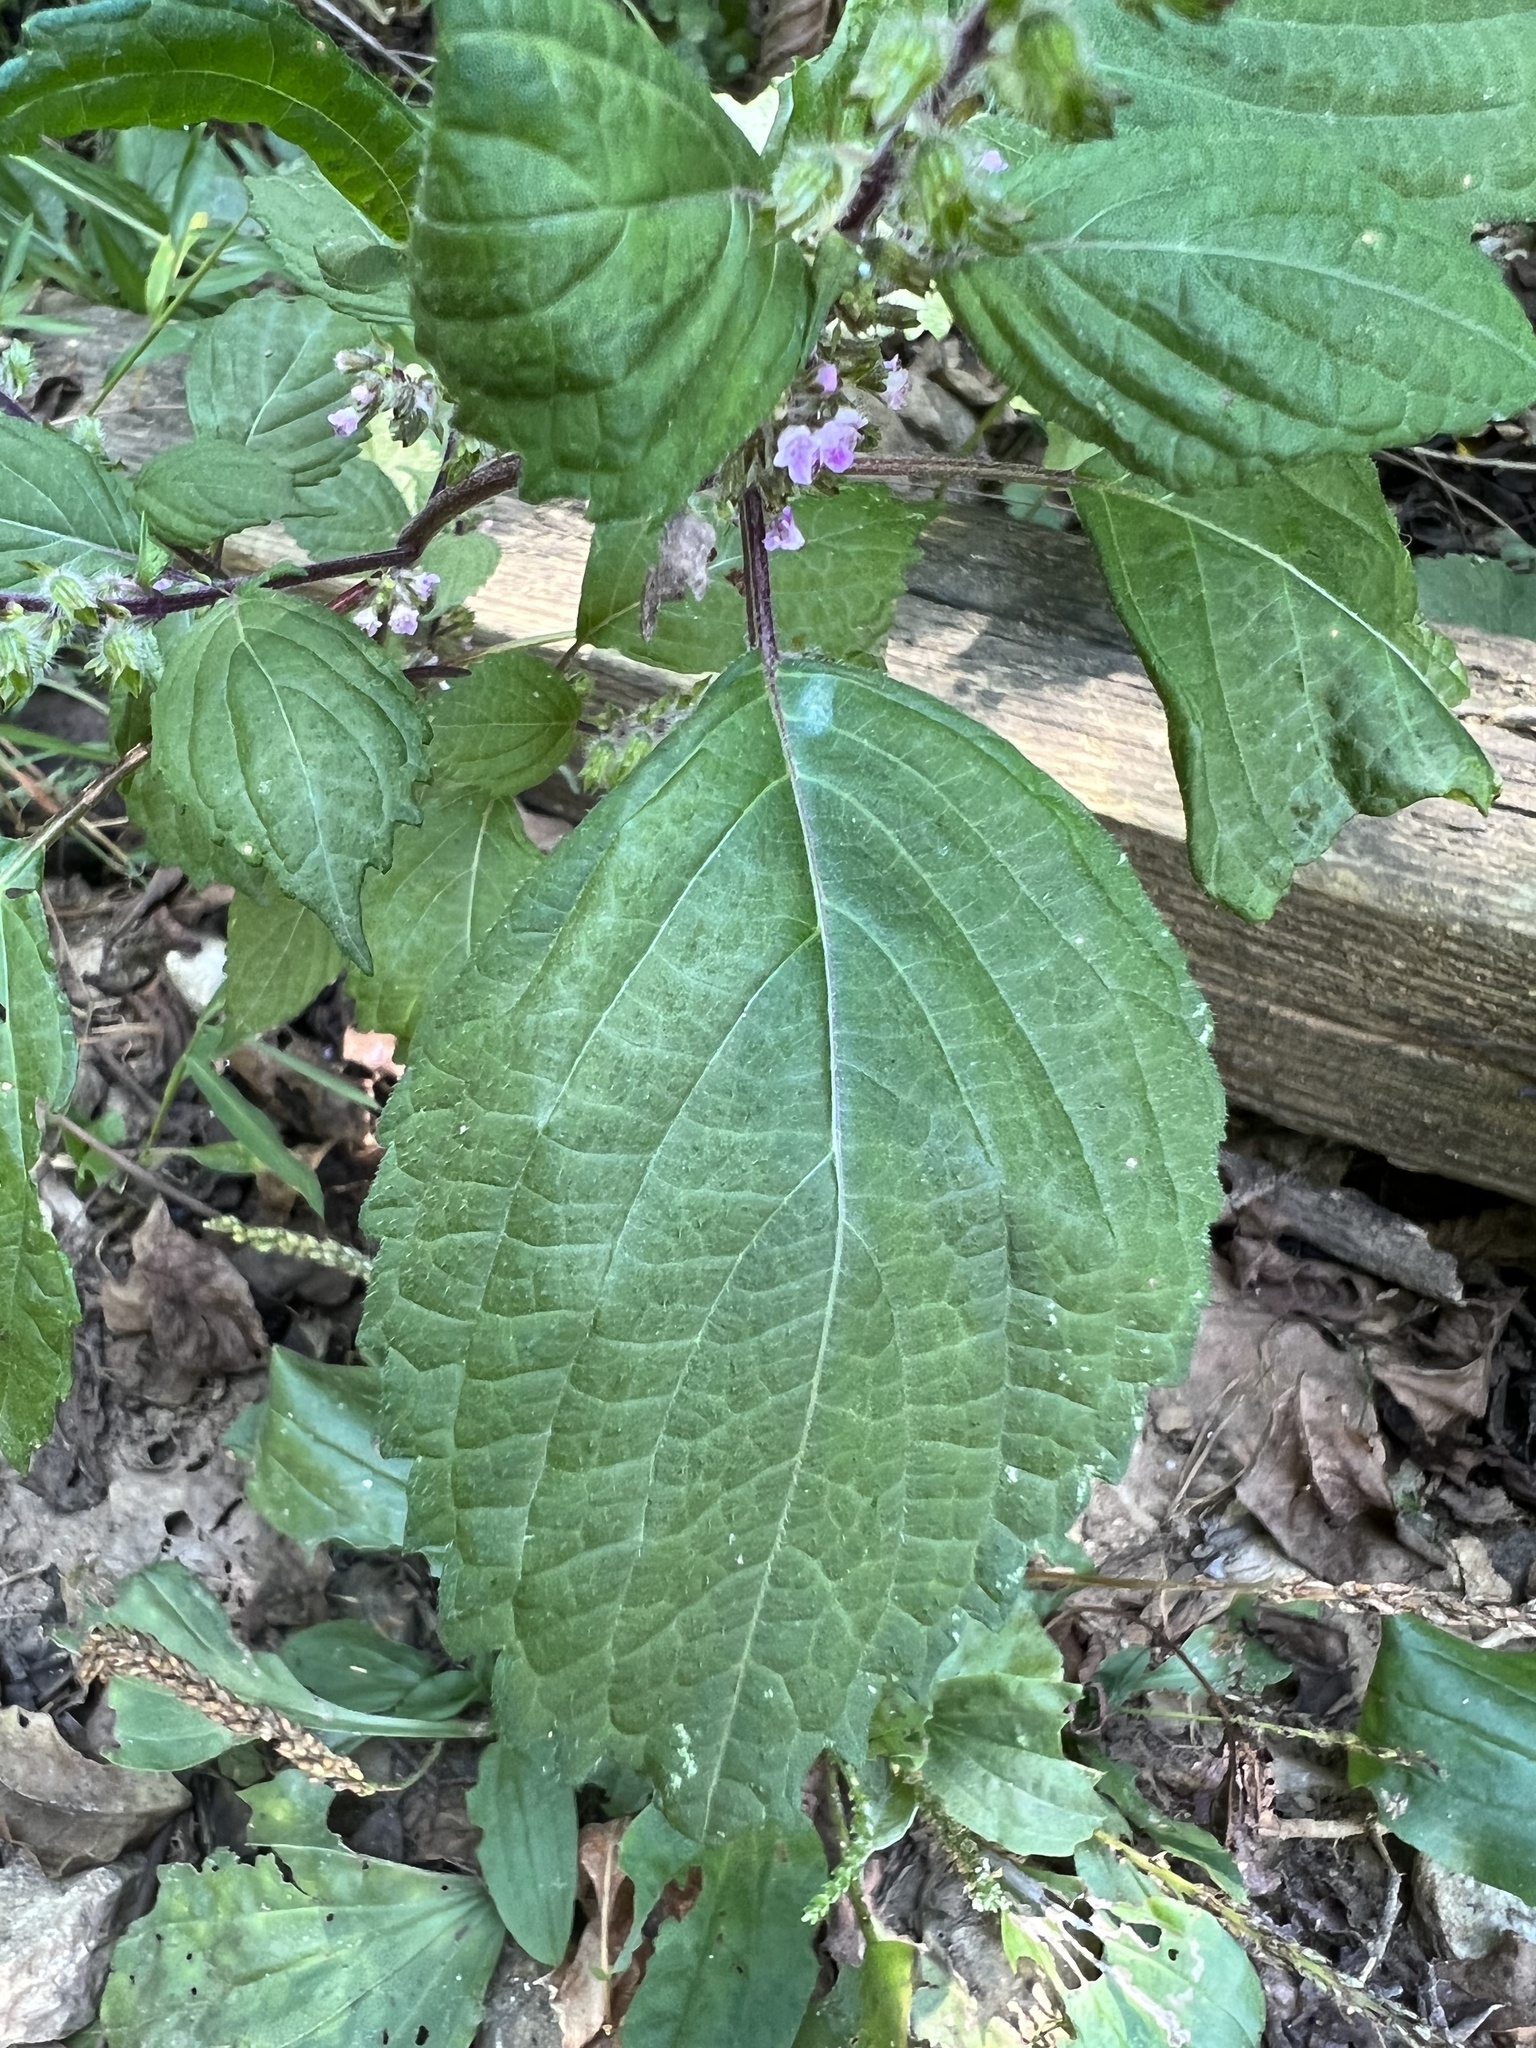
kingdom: Plantae
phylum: Tracheophyta
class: Magnoliopsida
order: Lamiales
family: Lamiaceae
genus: Perilla
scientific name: Perilla frutescens
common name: Perilla
